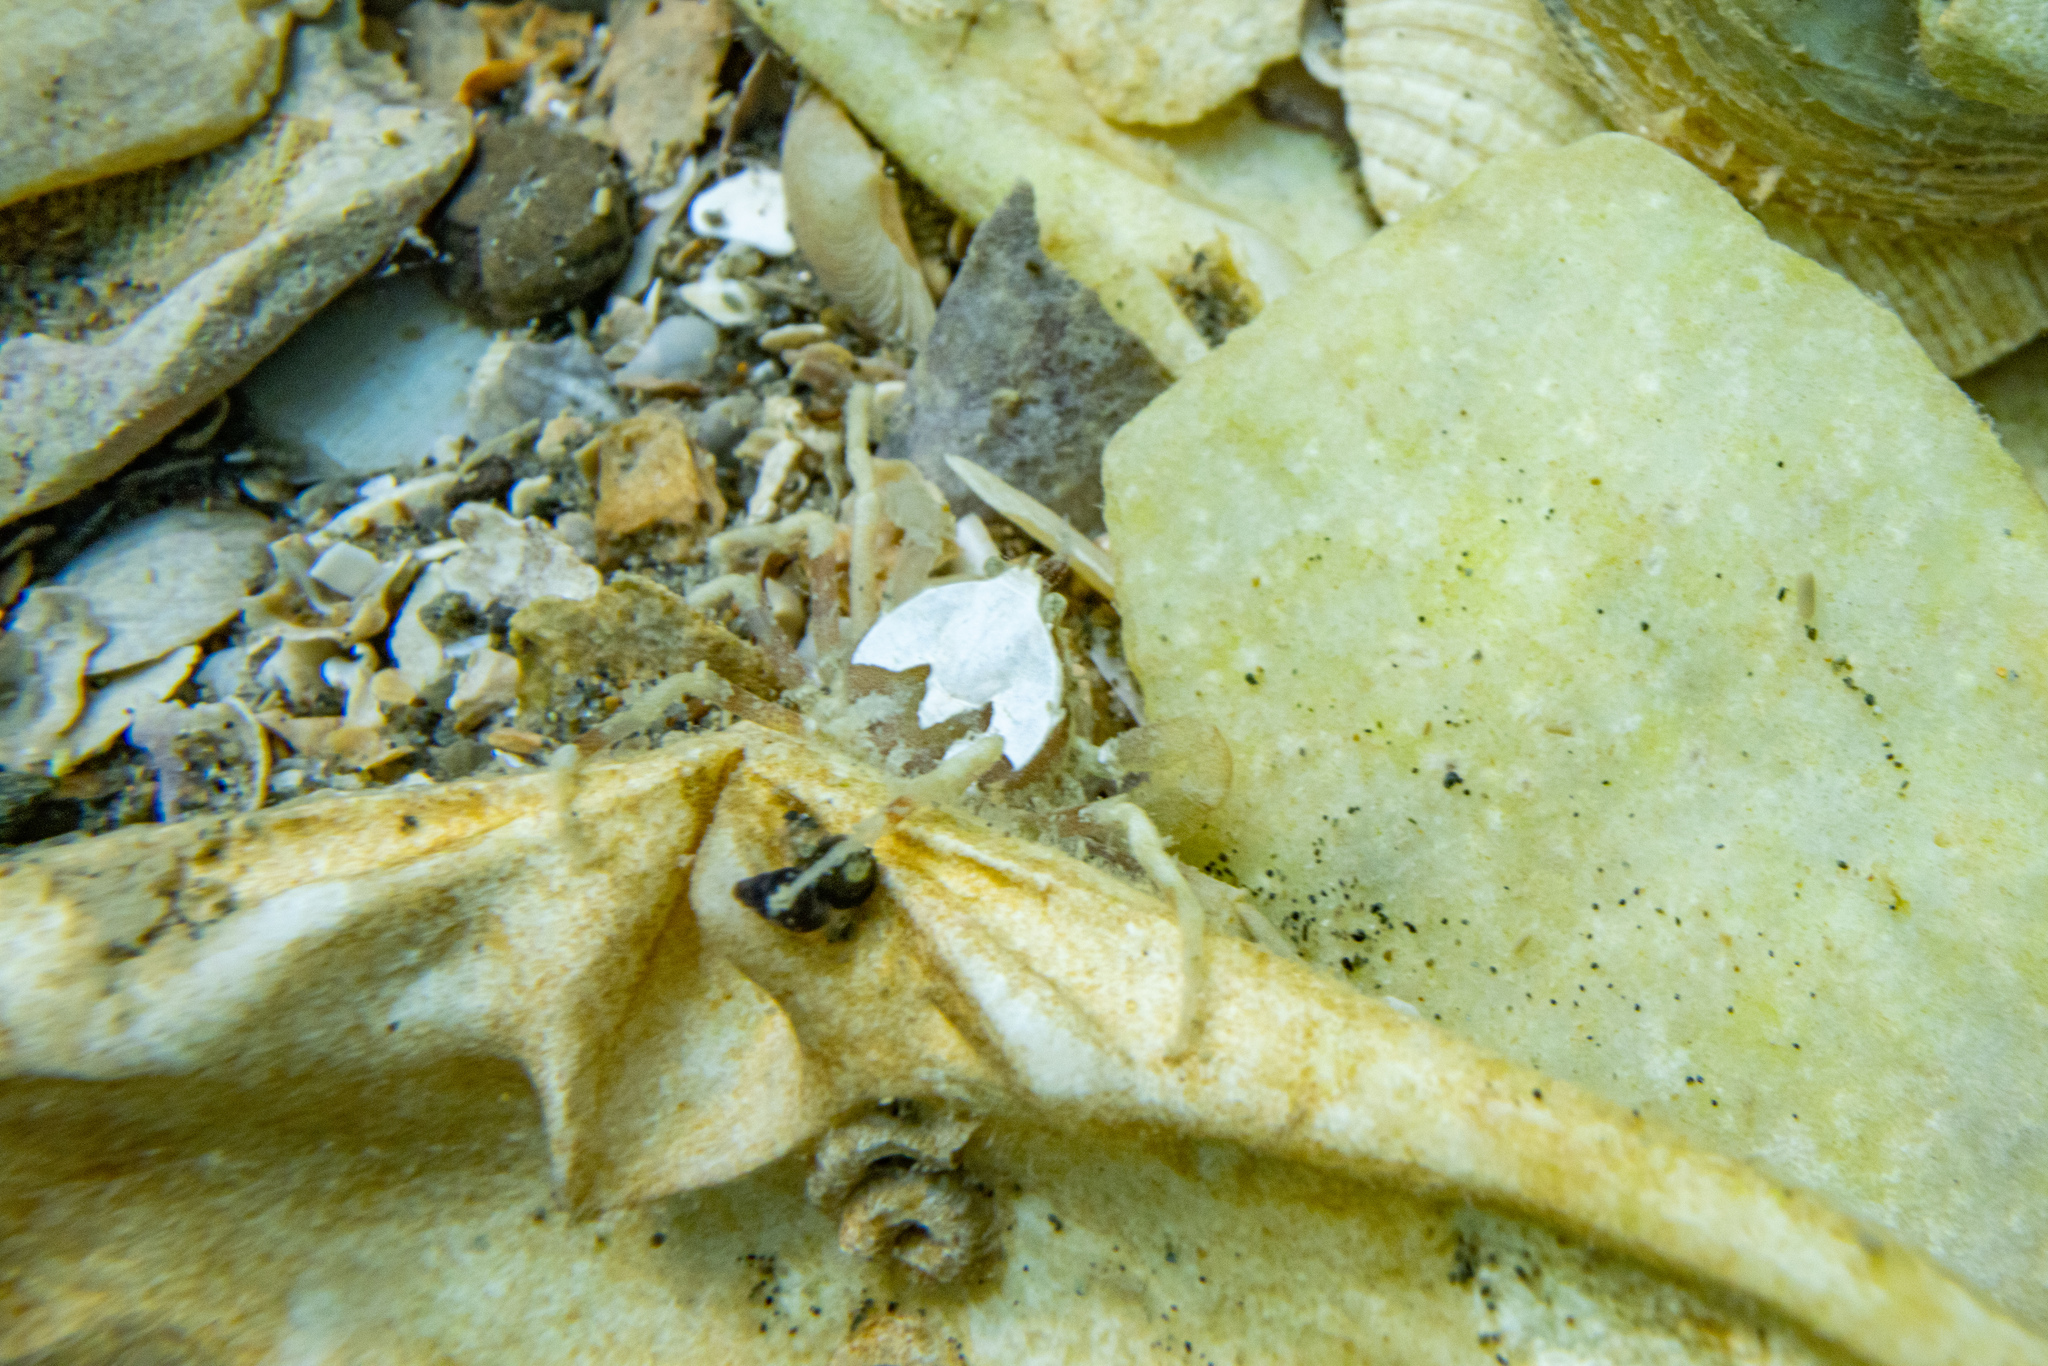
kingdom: Animalia
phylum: Arthropoda
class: Malacostraca
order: Decapoda
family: Hymenosomatidae
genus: Halicarcinus
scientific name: Halicarcinus varius
